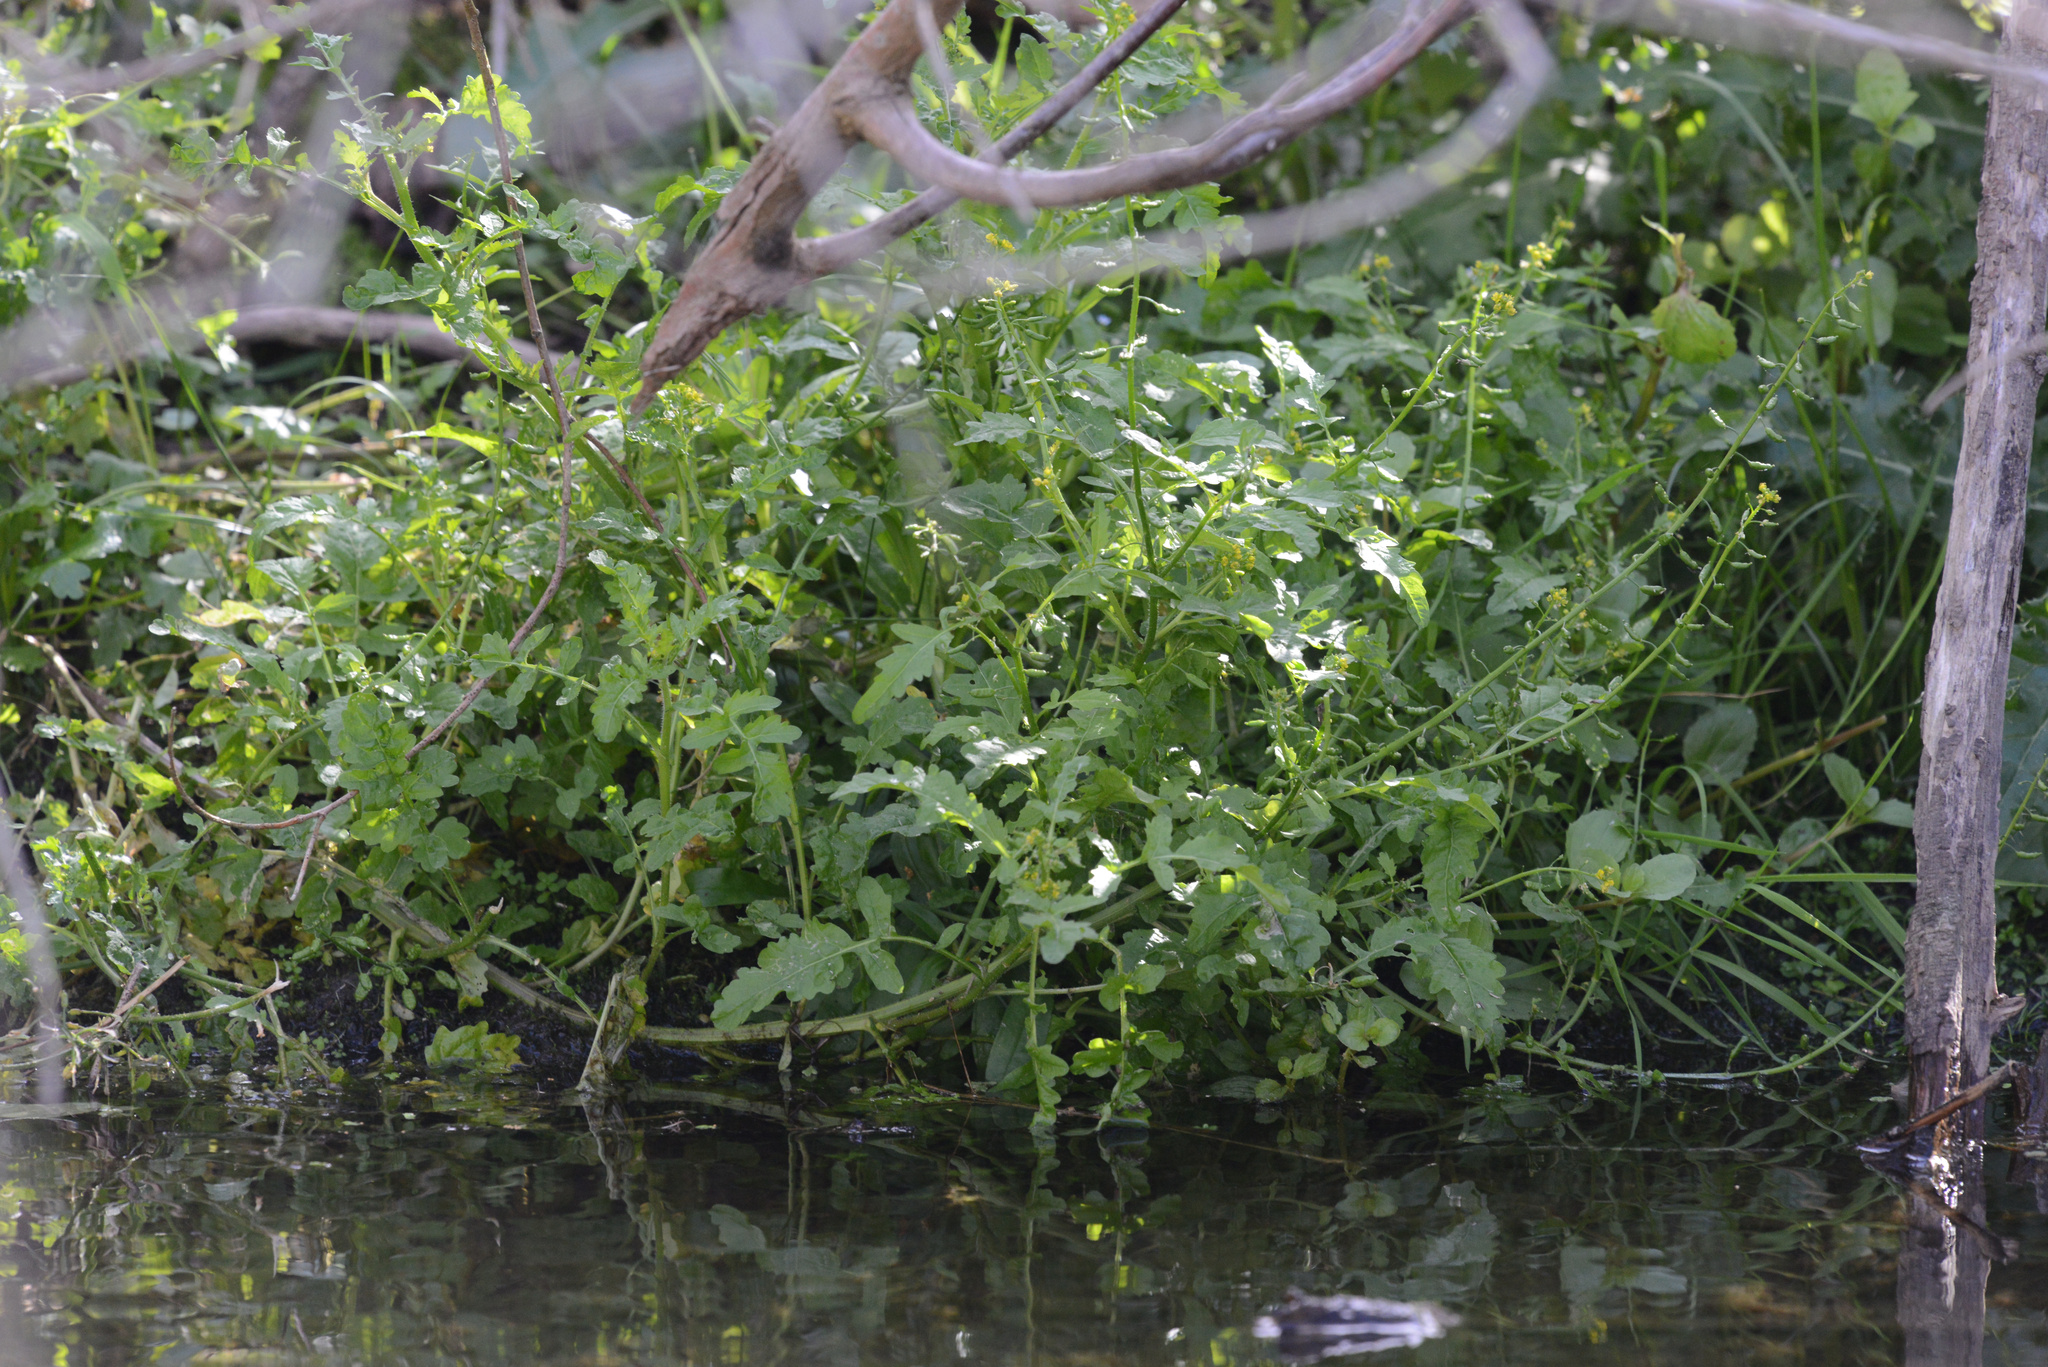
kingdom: Plantae
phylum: Tracheophyta
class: Magnoliopsida
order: Brassicales
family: Brassicaceae
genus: Rorippa
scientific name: Rorippa palustris
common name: Marsh yellow-cress
